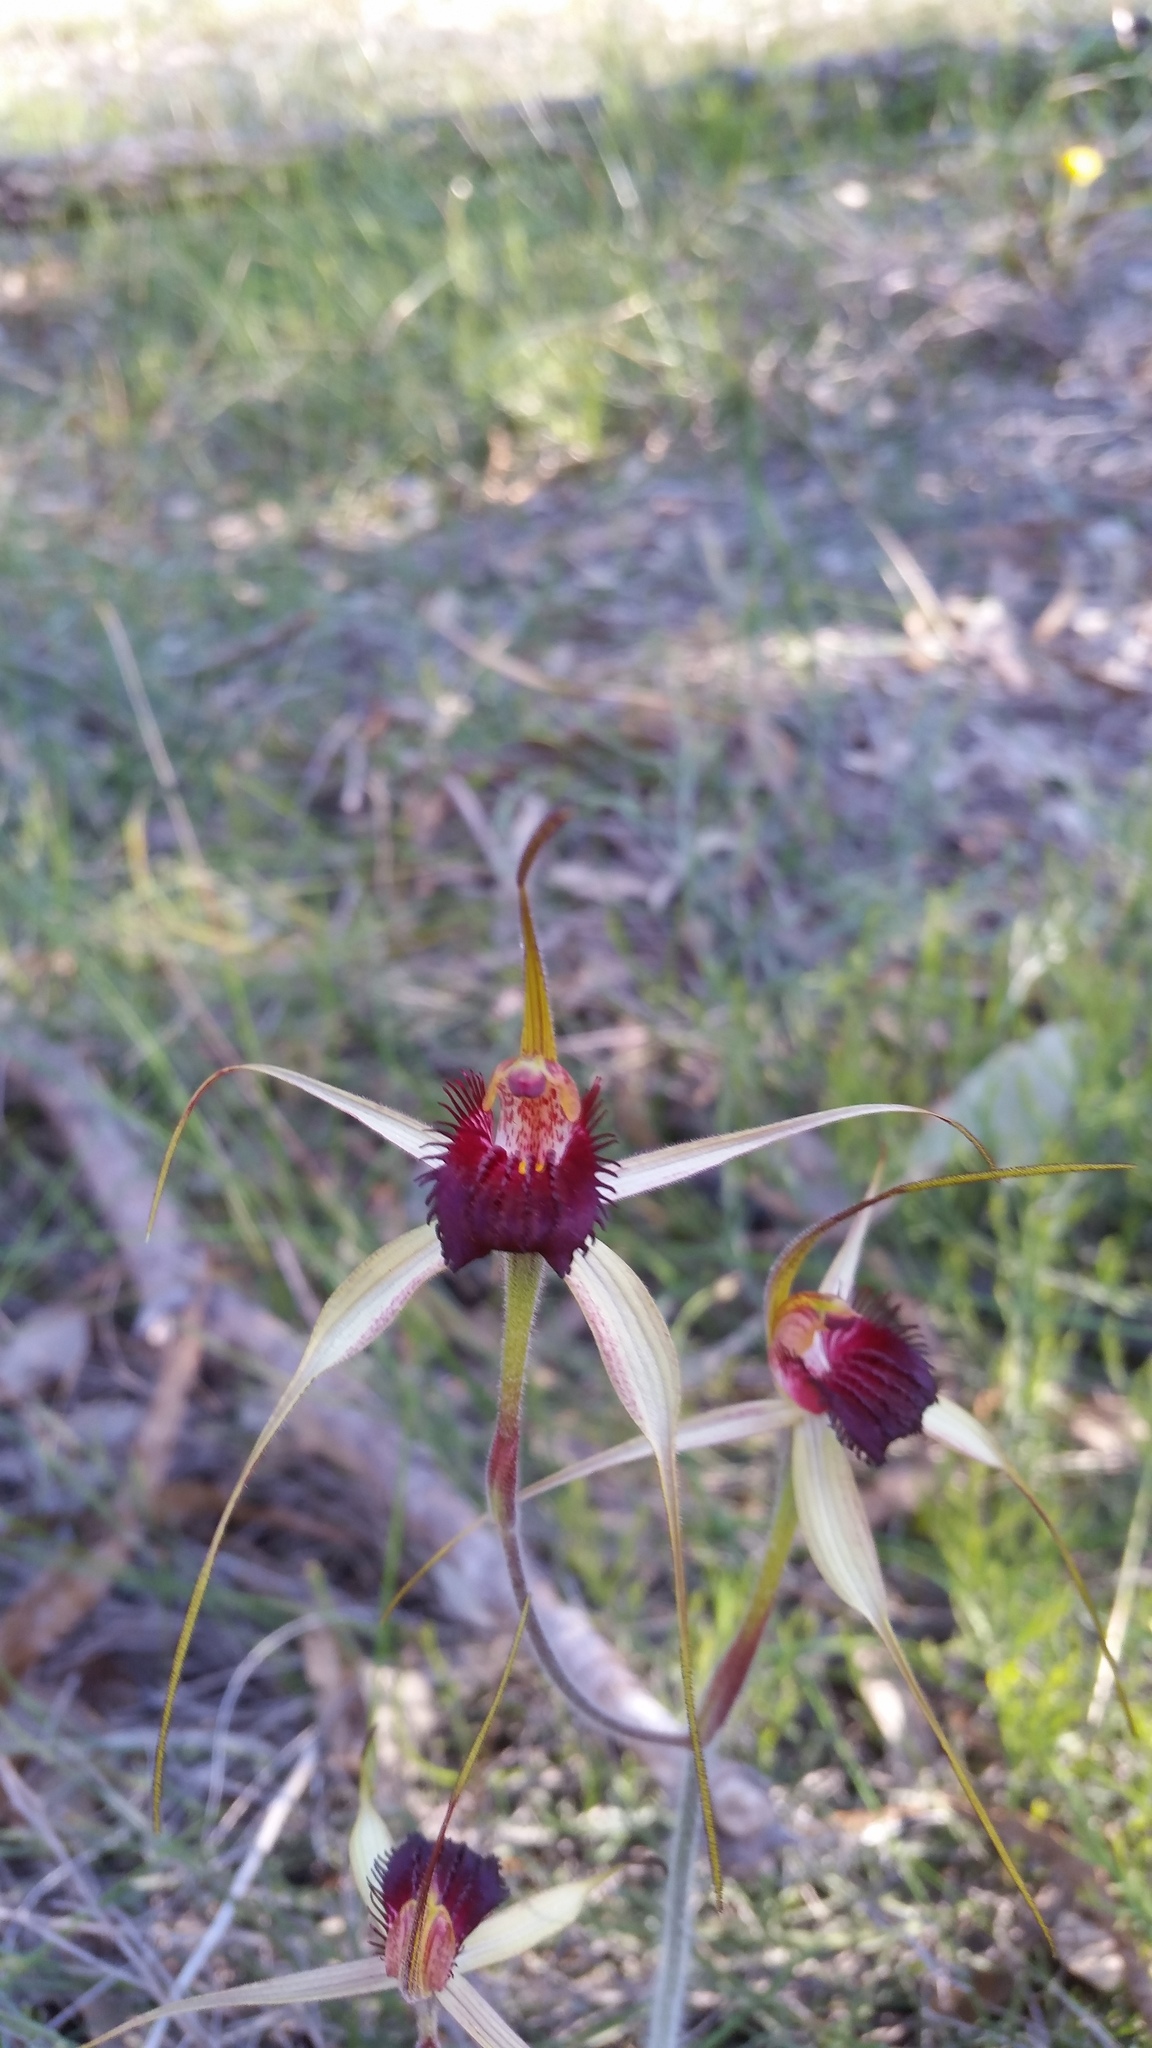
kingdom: Plantae
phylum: Tracheophyta
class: Liliopsida
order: Asparagales
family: Orchidaceae
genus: Caladenia
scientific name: Caladenia arenicola
